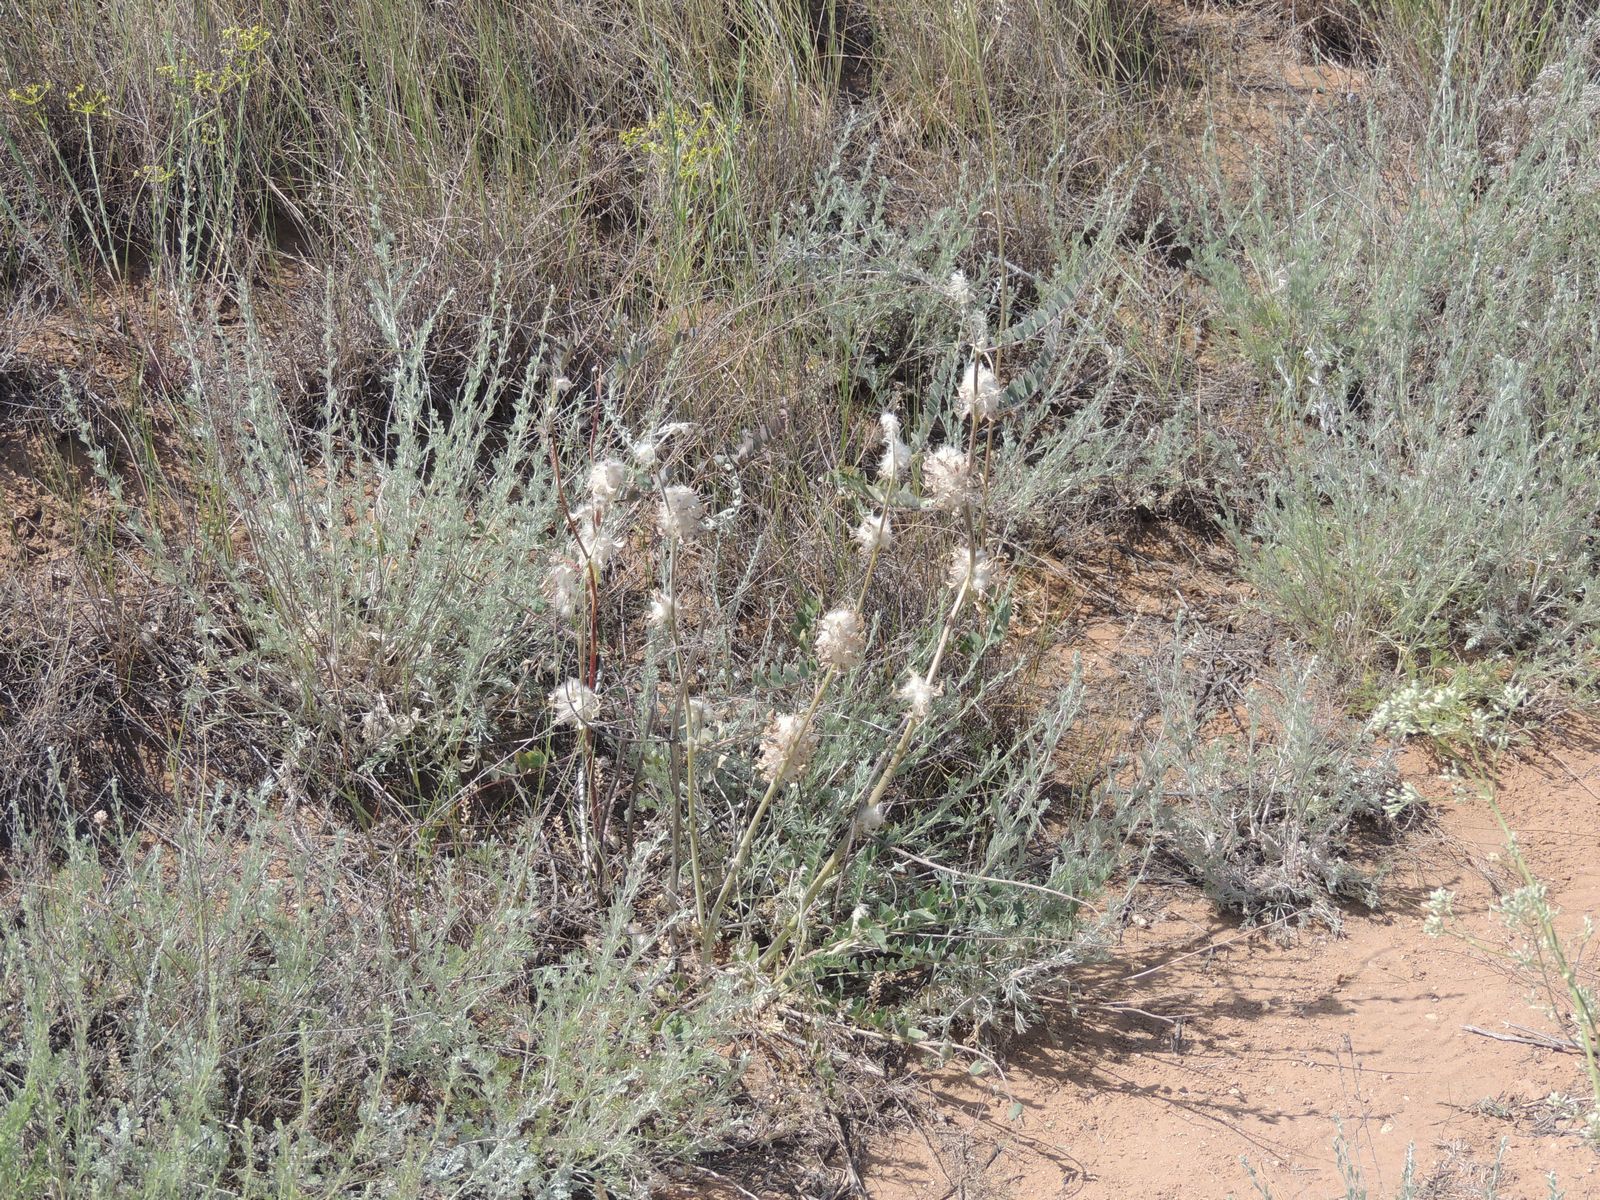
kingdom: Plantae
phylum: Tracheophyta
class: Magnoliopsida
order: Fabales
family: Fabaceae
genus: Astragalus
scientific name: Astragalus vulpinus
